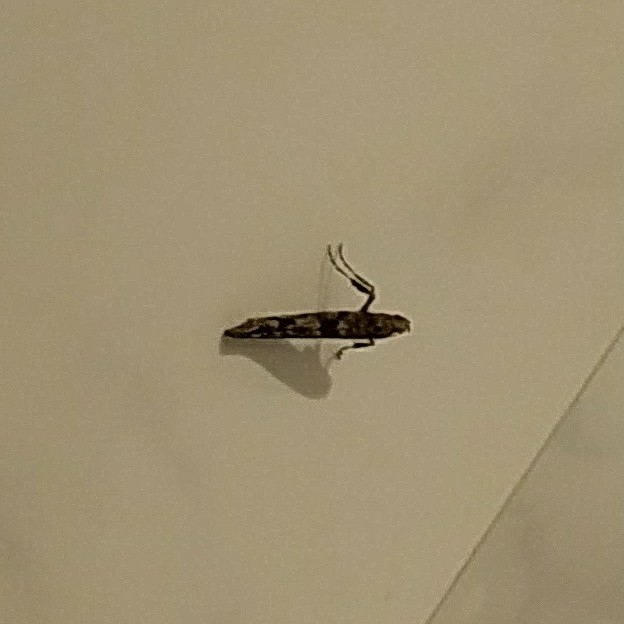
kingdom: Animalia
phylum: Arthropoda
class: Insecta
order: Lepidoptera
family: Gracillariidae
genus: Caloptilia
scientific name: Caloptilia suberinella
